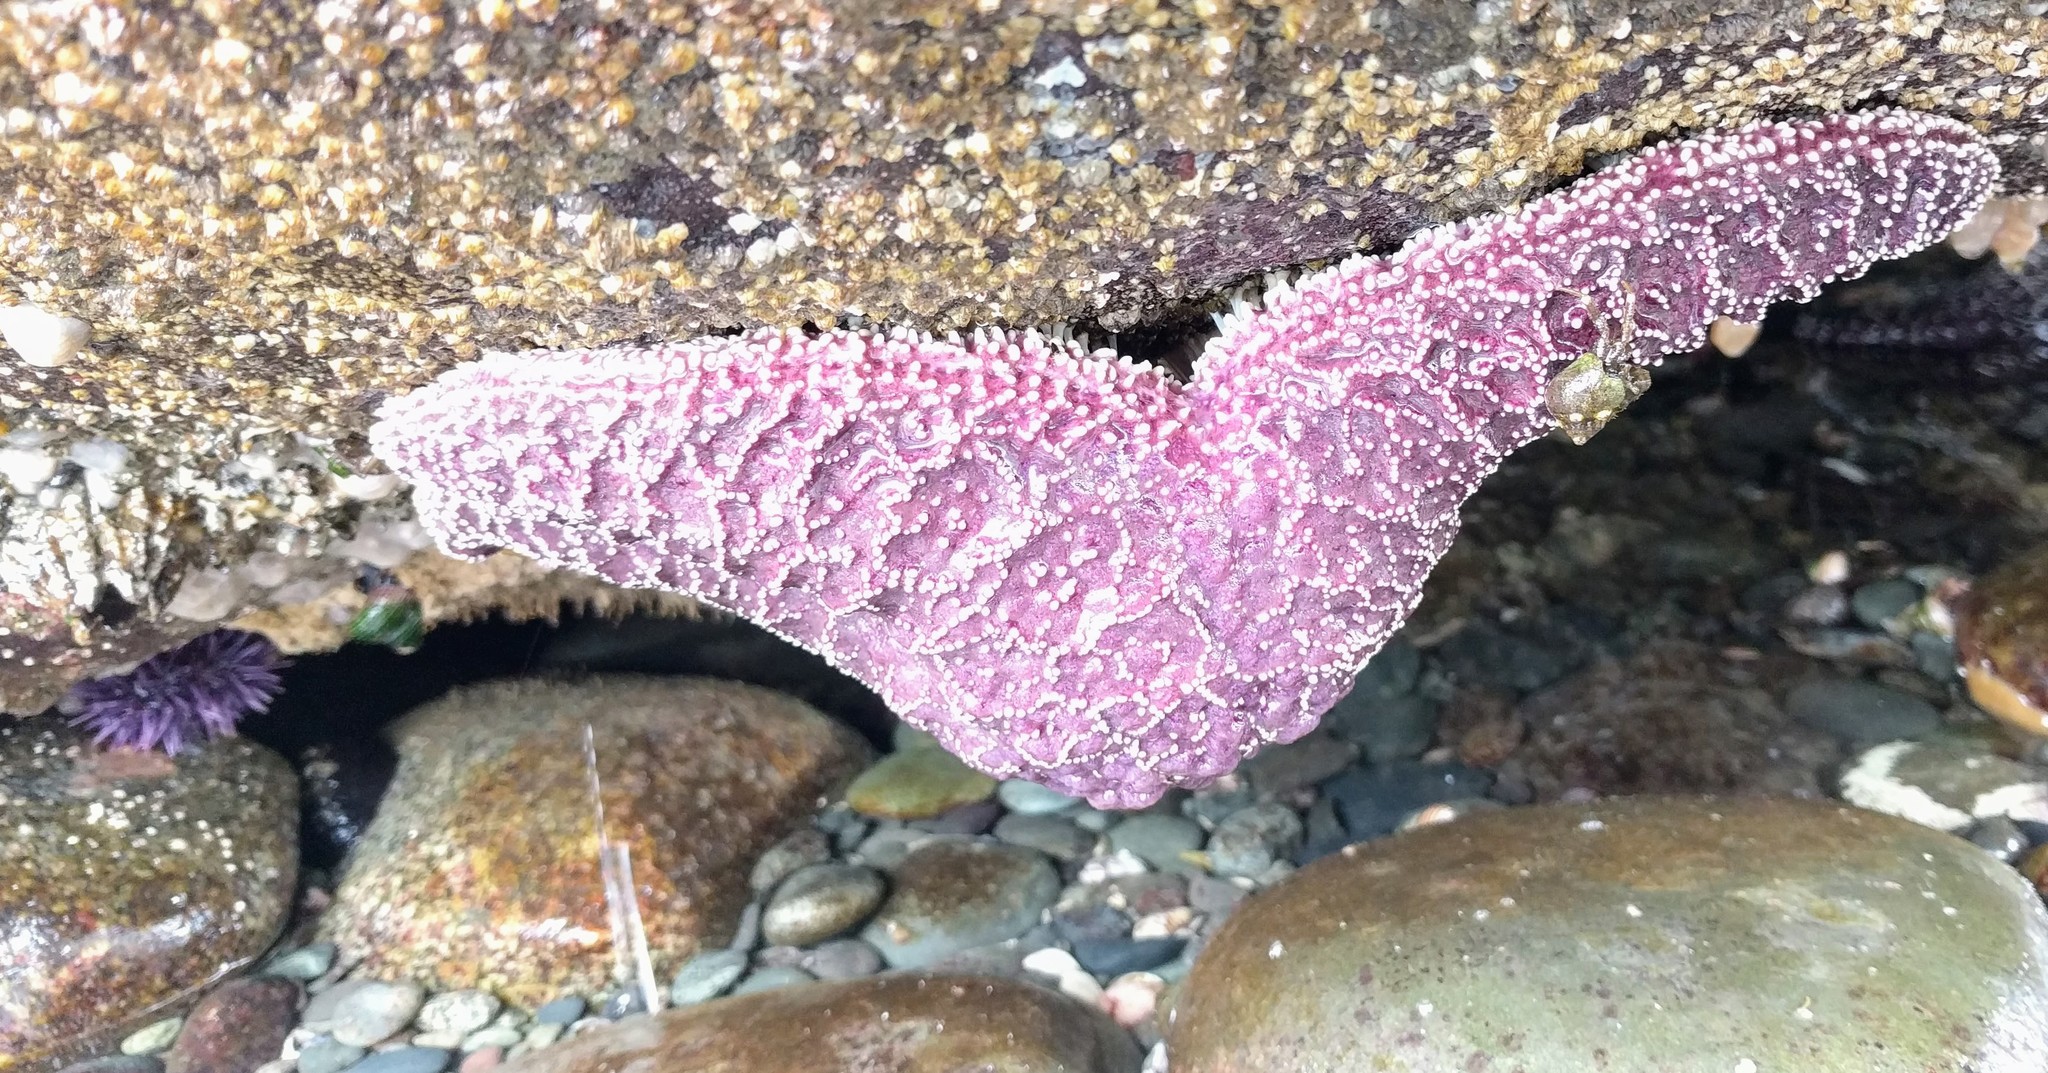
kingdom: Animalia
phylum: Echinodermata
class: Asteroidea
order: Forcipulatida
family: Asteriidae
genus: Pisaster
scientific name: Pisaster ochraceus
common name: Ochre stars
